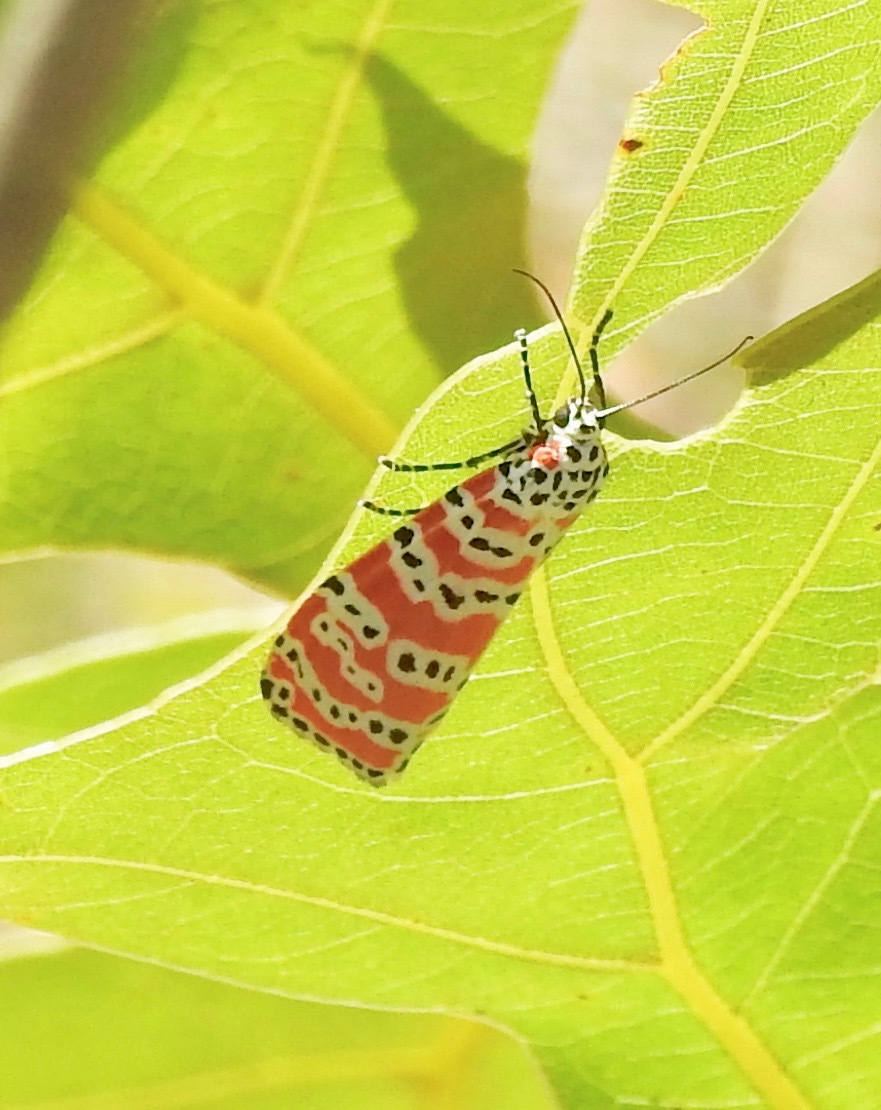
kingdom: Animalia
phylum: Arthropoda
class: Insecta
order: Lepidoptera
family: Erebidae
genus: Utetheisa
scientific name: Utetheisa ornatrix
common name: Beautiful utetheisa
